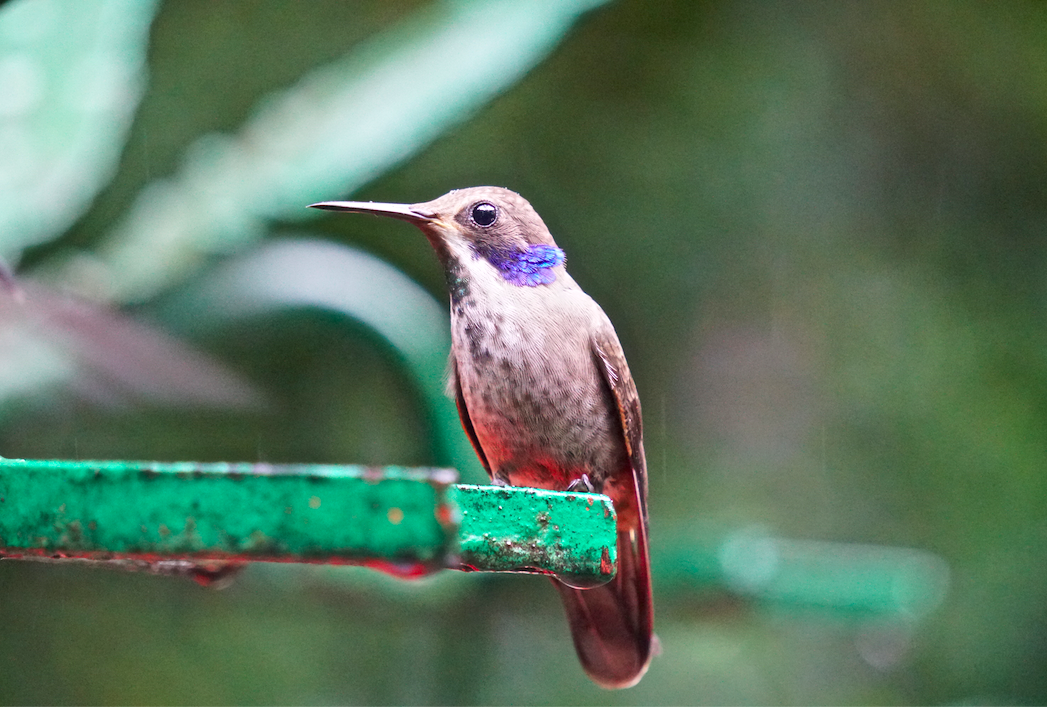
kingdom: Animalia
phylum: Chordata
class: Aves
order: Apodiformes
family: Trochilidae
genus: Colibri
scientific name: Colibri delphinae
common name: Brown violetear
